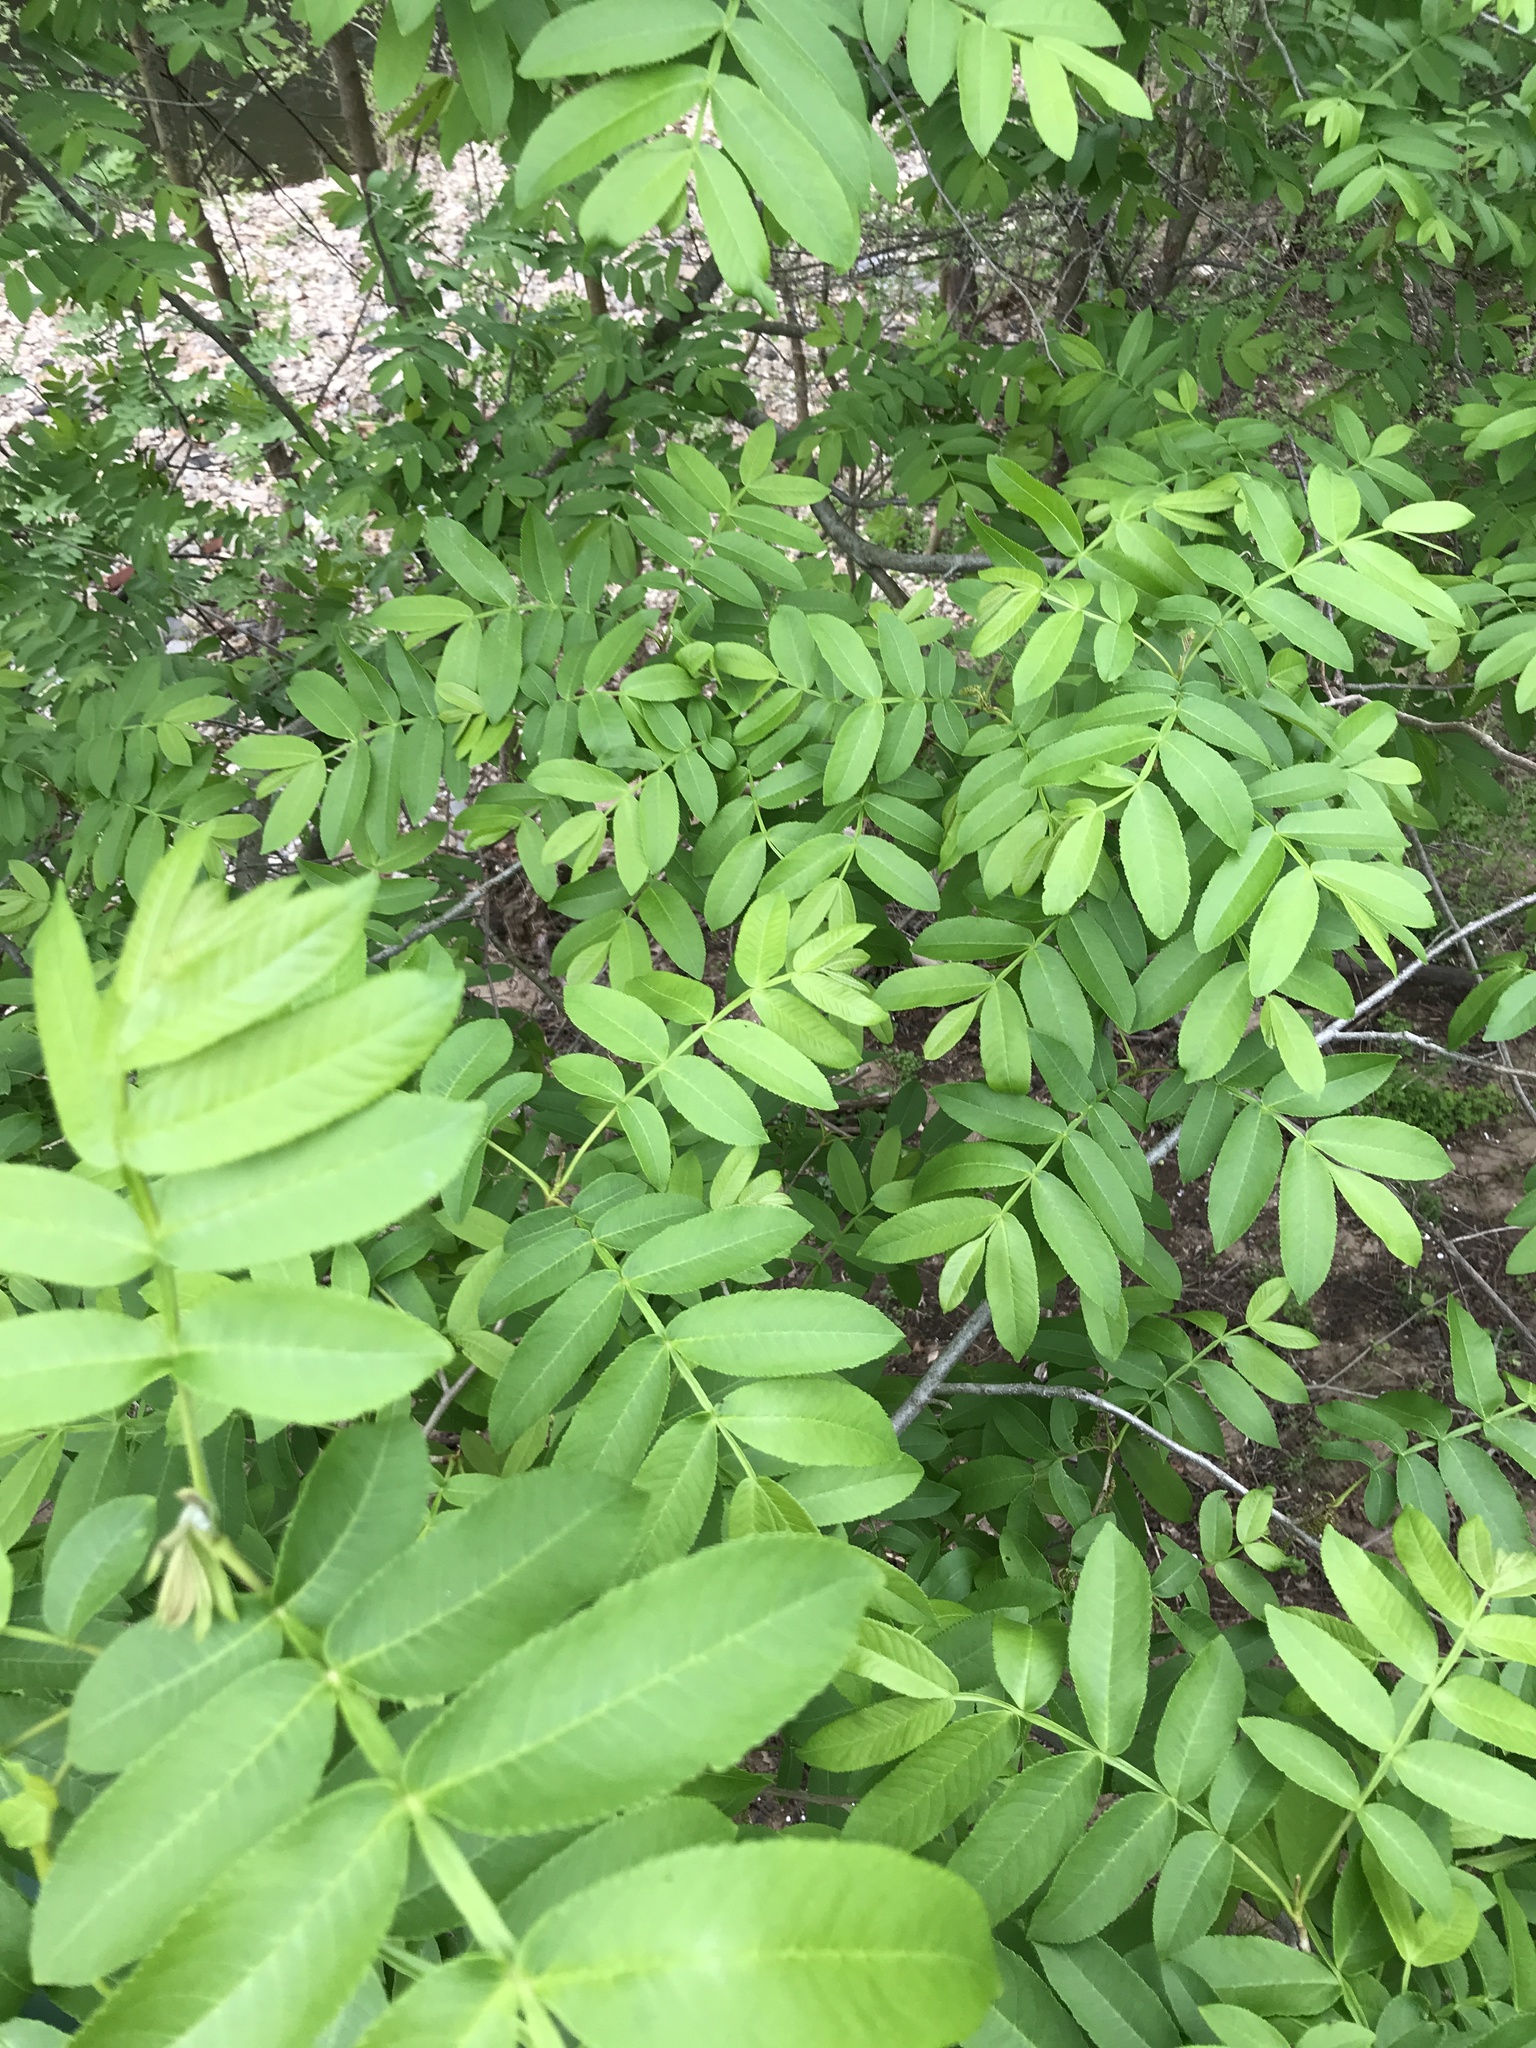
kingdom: Plantae
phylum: Tracheophyta
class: Magnoliopsida
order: Fagales
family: Juglandaceae
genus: Pterocarya
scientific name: Pterocarya stenoptera
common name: Chinese wingnut
